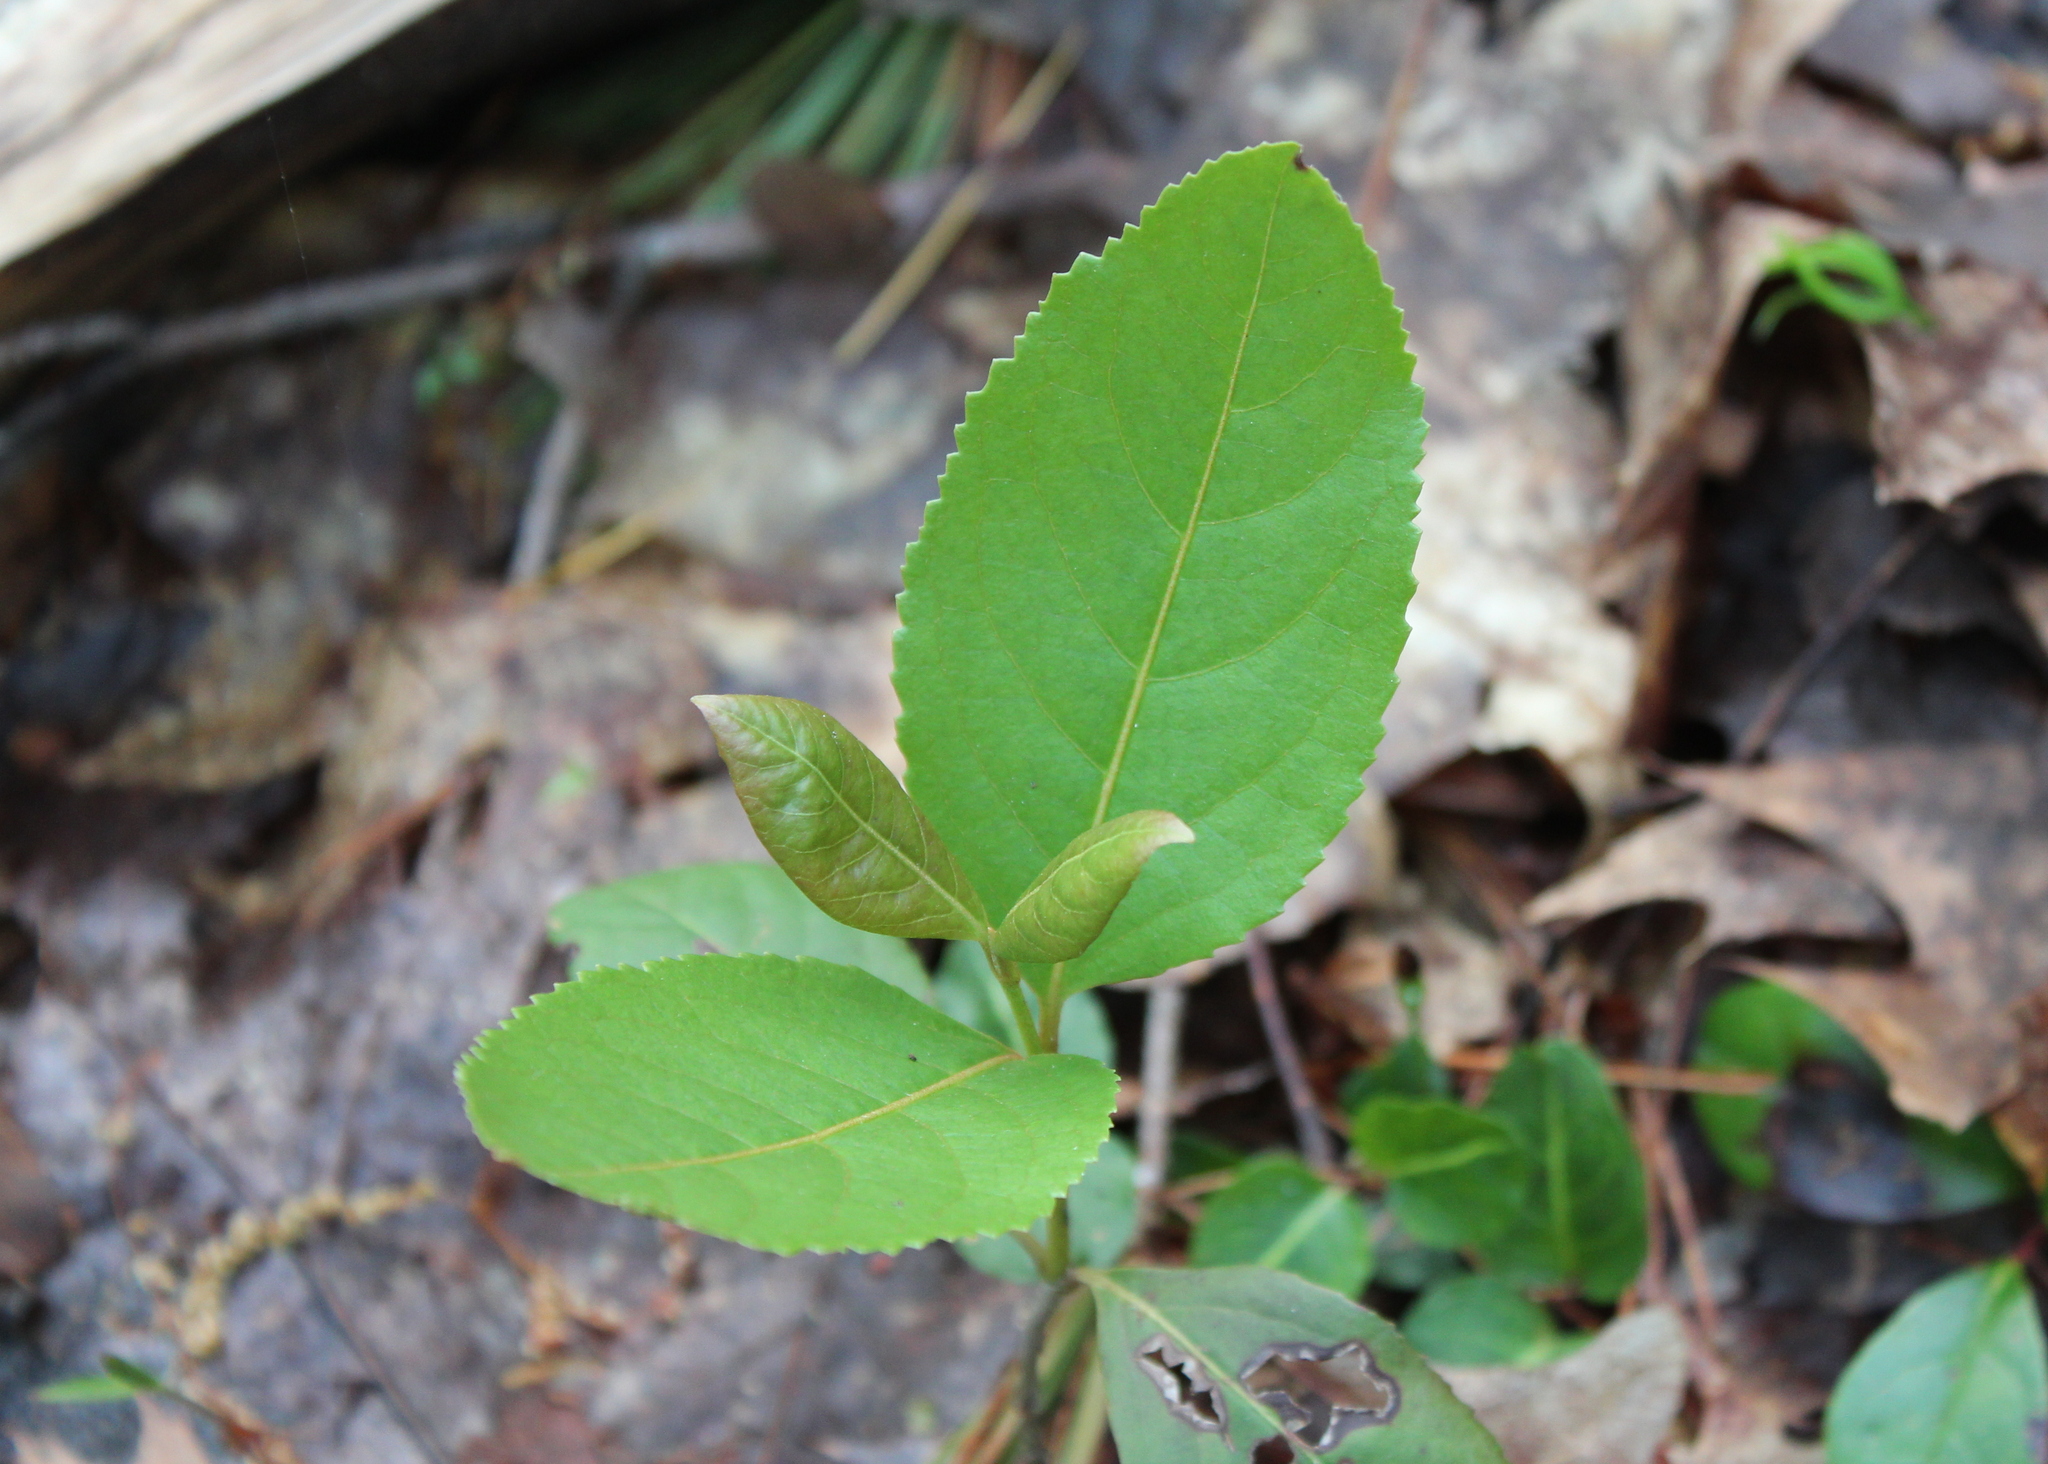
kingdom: Plantae
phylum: Tracheophyta
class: Magnoliopsida
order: Dipsacales
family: Viburnaceae
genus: Viburnum
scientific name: Viburnum cassinoides
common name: Swamp haw
